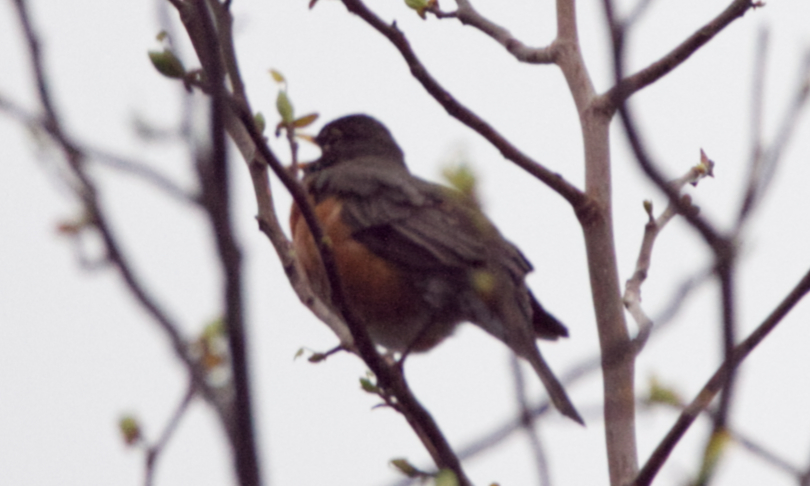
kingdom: Animalia
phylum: Chordata
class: Aves
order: Passeriformes
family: Turdidae
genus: Turdus
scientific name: Turdus migratorius
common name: American robin
